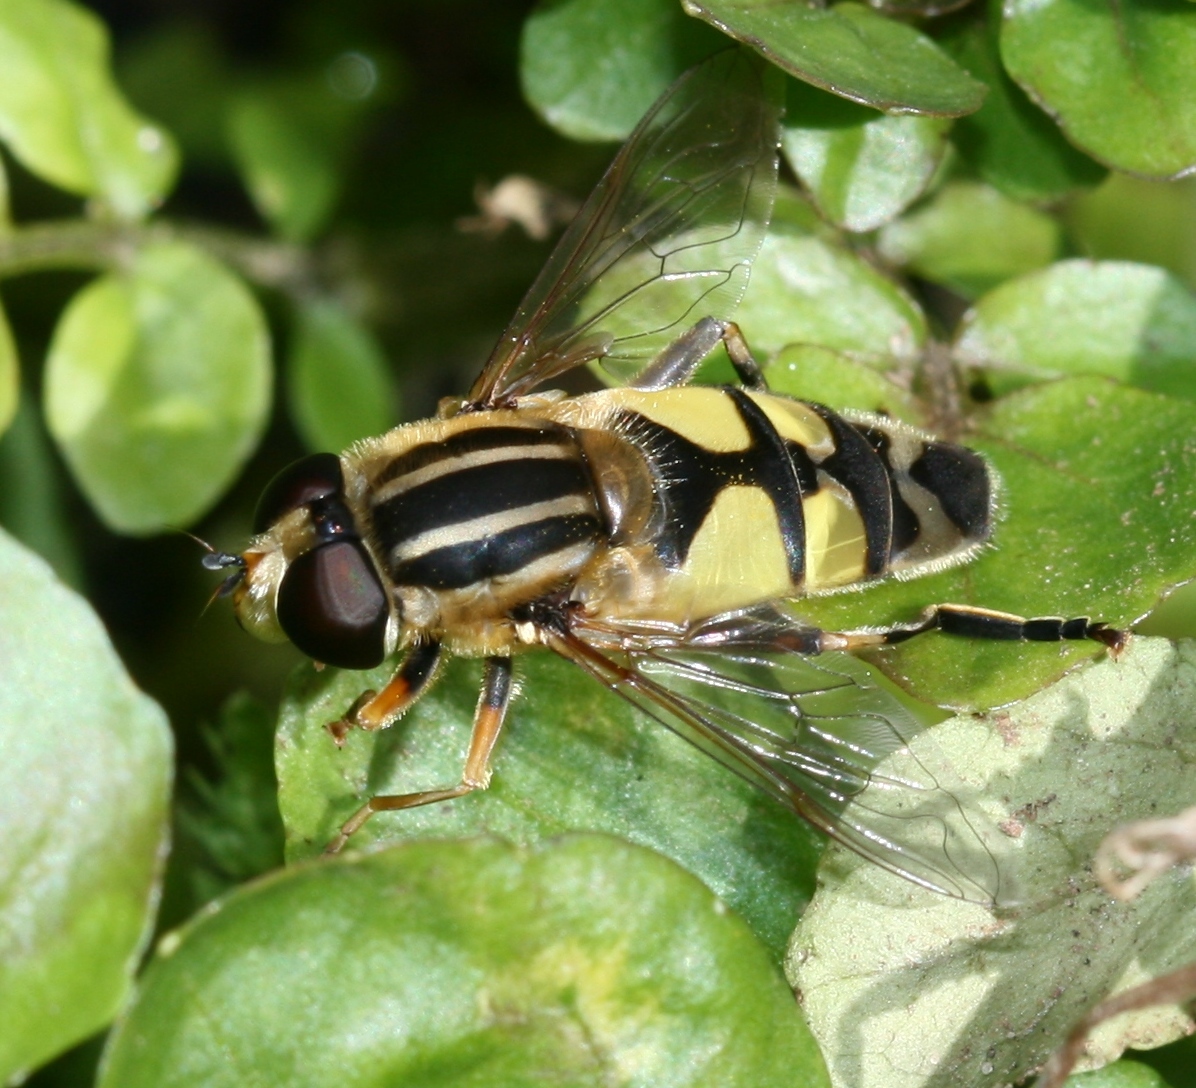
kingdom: Animalia
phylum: Arthropoda
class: Insecta
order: Diptera
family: Syrphidae
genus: Helophilus
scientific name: Helophilus trivittatus
